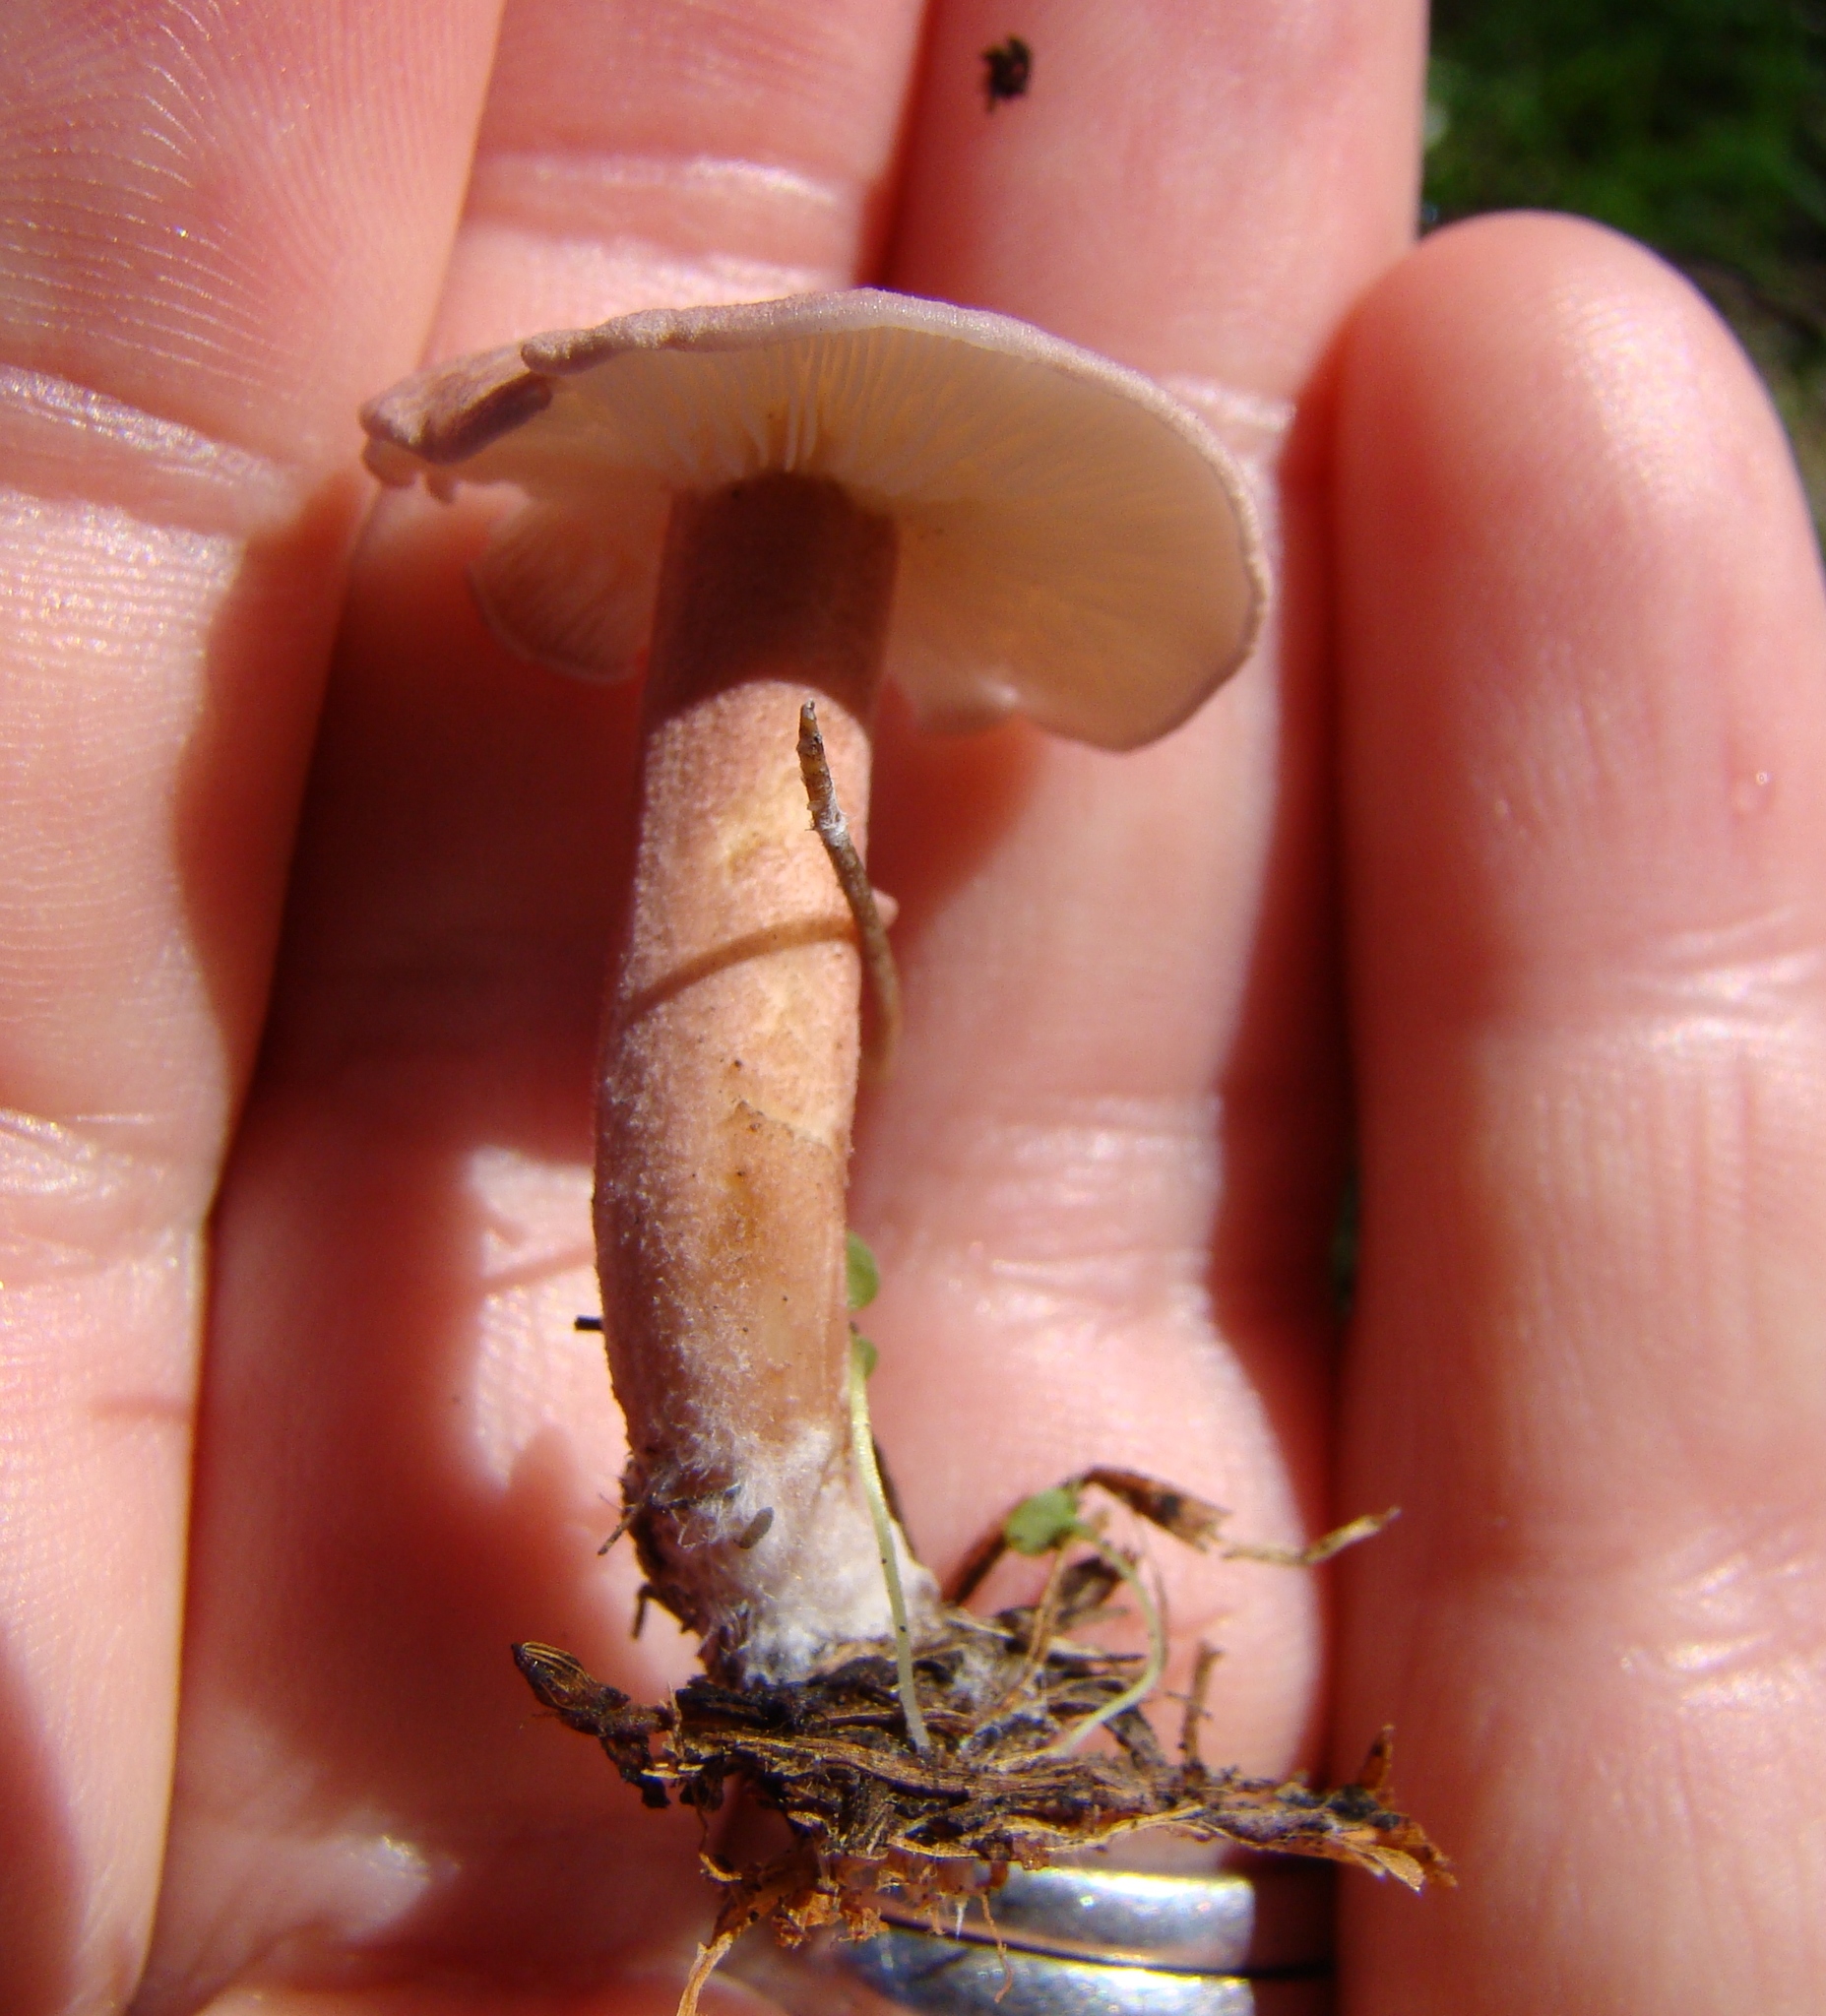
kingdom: Fungi
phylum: Basidiomycota
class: Agaricomycetes
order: Agaricales
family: Lyophyllaceae
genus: Calocybe
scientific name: Calocybe carnea
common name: Pink domecap
